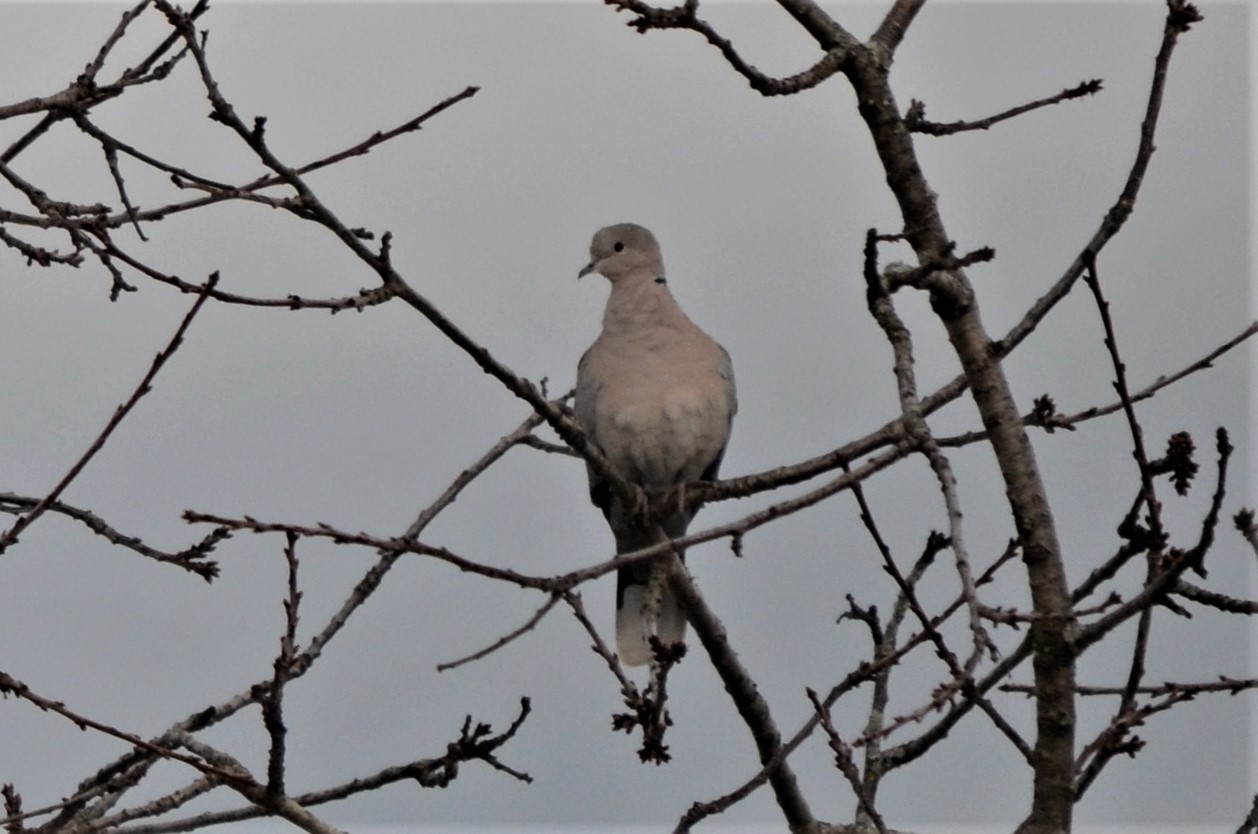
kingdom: Animalia
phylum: Chordata
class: Aves
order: Columbiformes
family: Columbidae
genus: Streptopelia
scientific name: Streptopelia decaocto
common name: Eurasian collared dove
